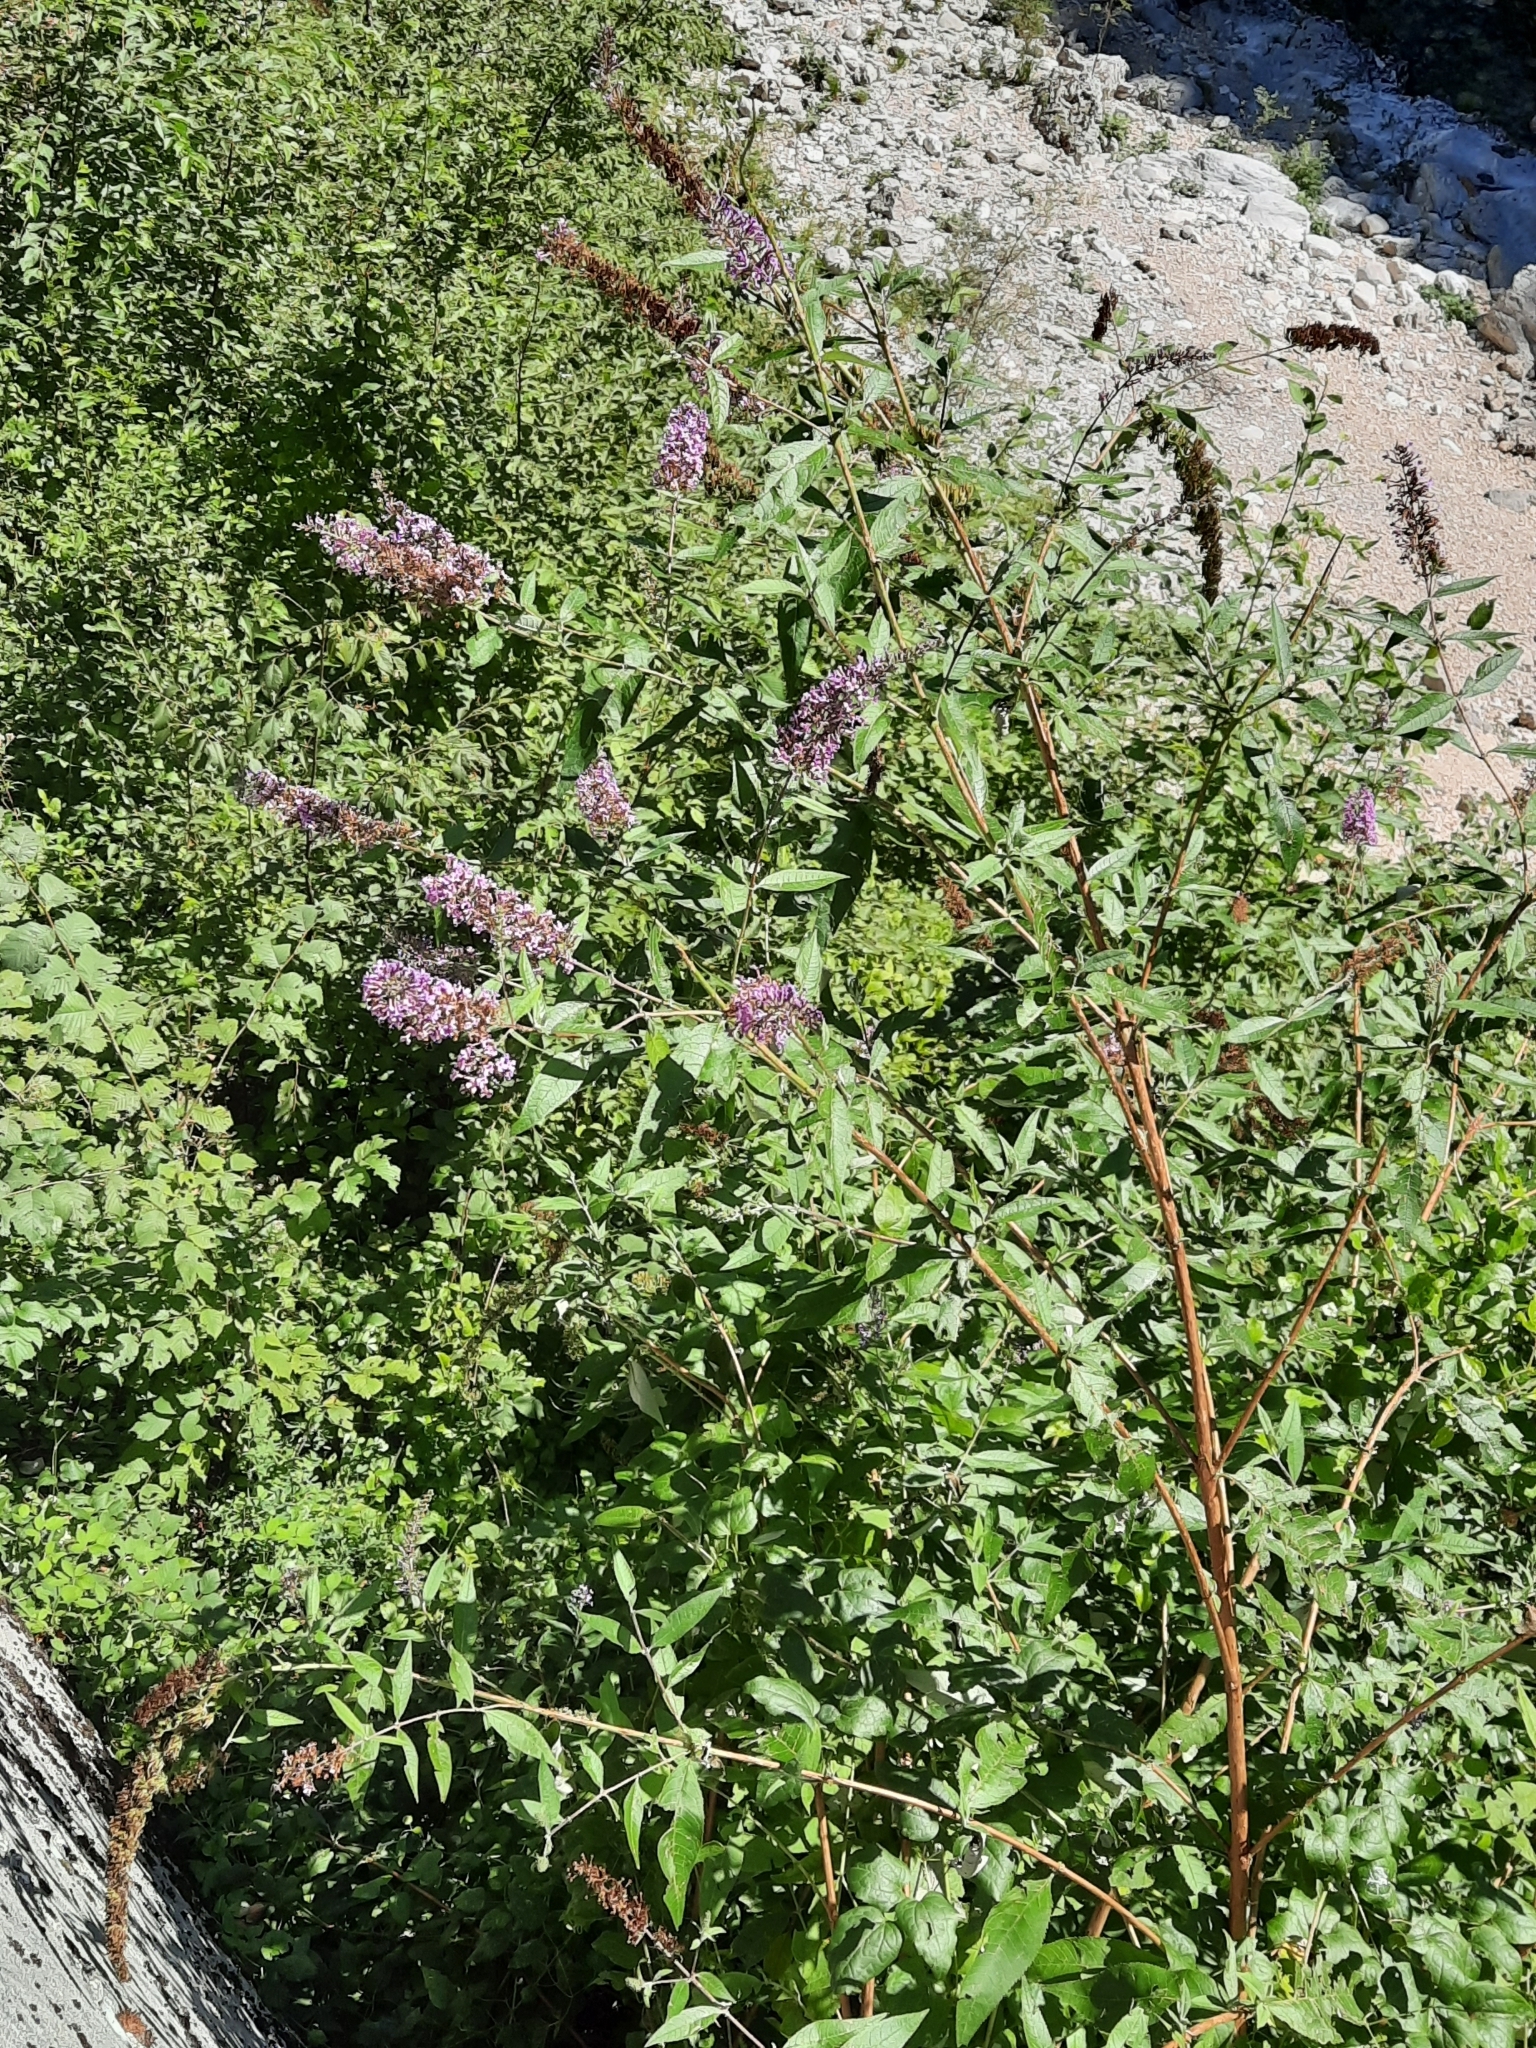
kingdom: Plantae
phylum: Tracheophyta
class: Magnoliopsida
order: Lamiales
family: Scrophulariaceae
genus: Buddleja
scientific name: Buddleja davidii
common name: Butterfly-bush
